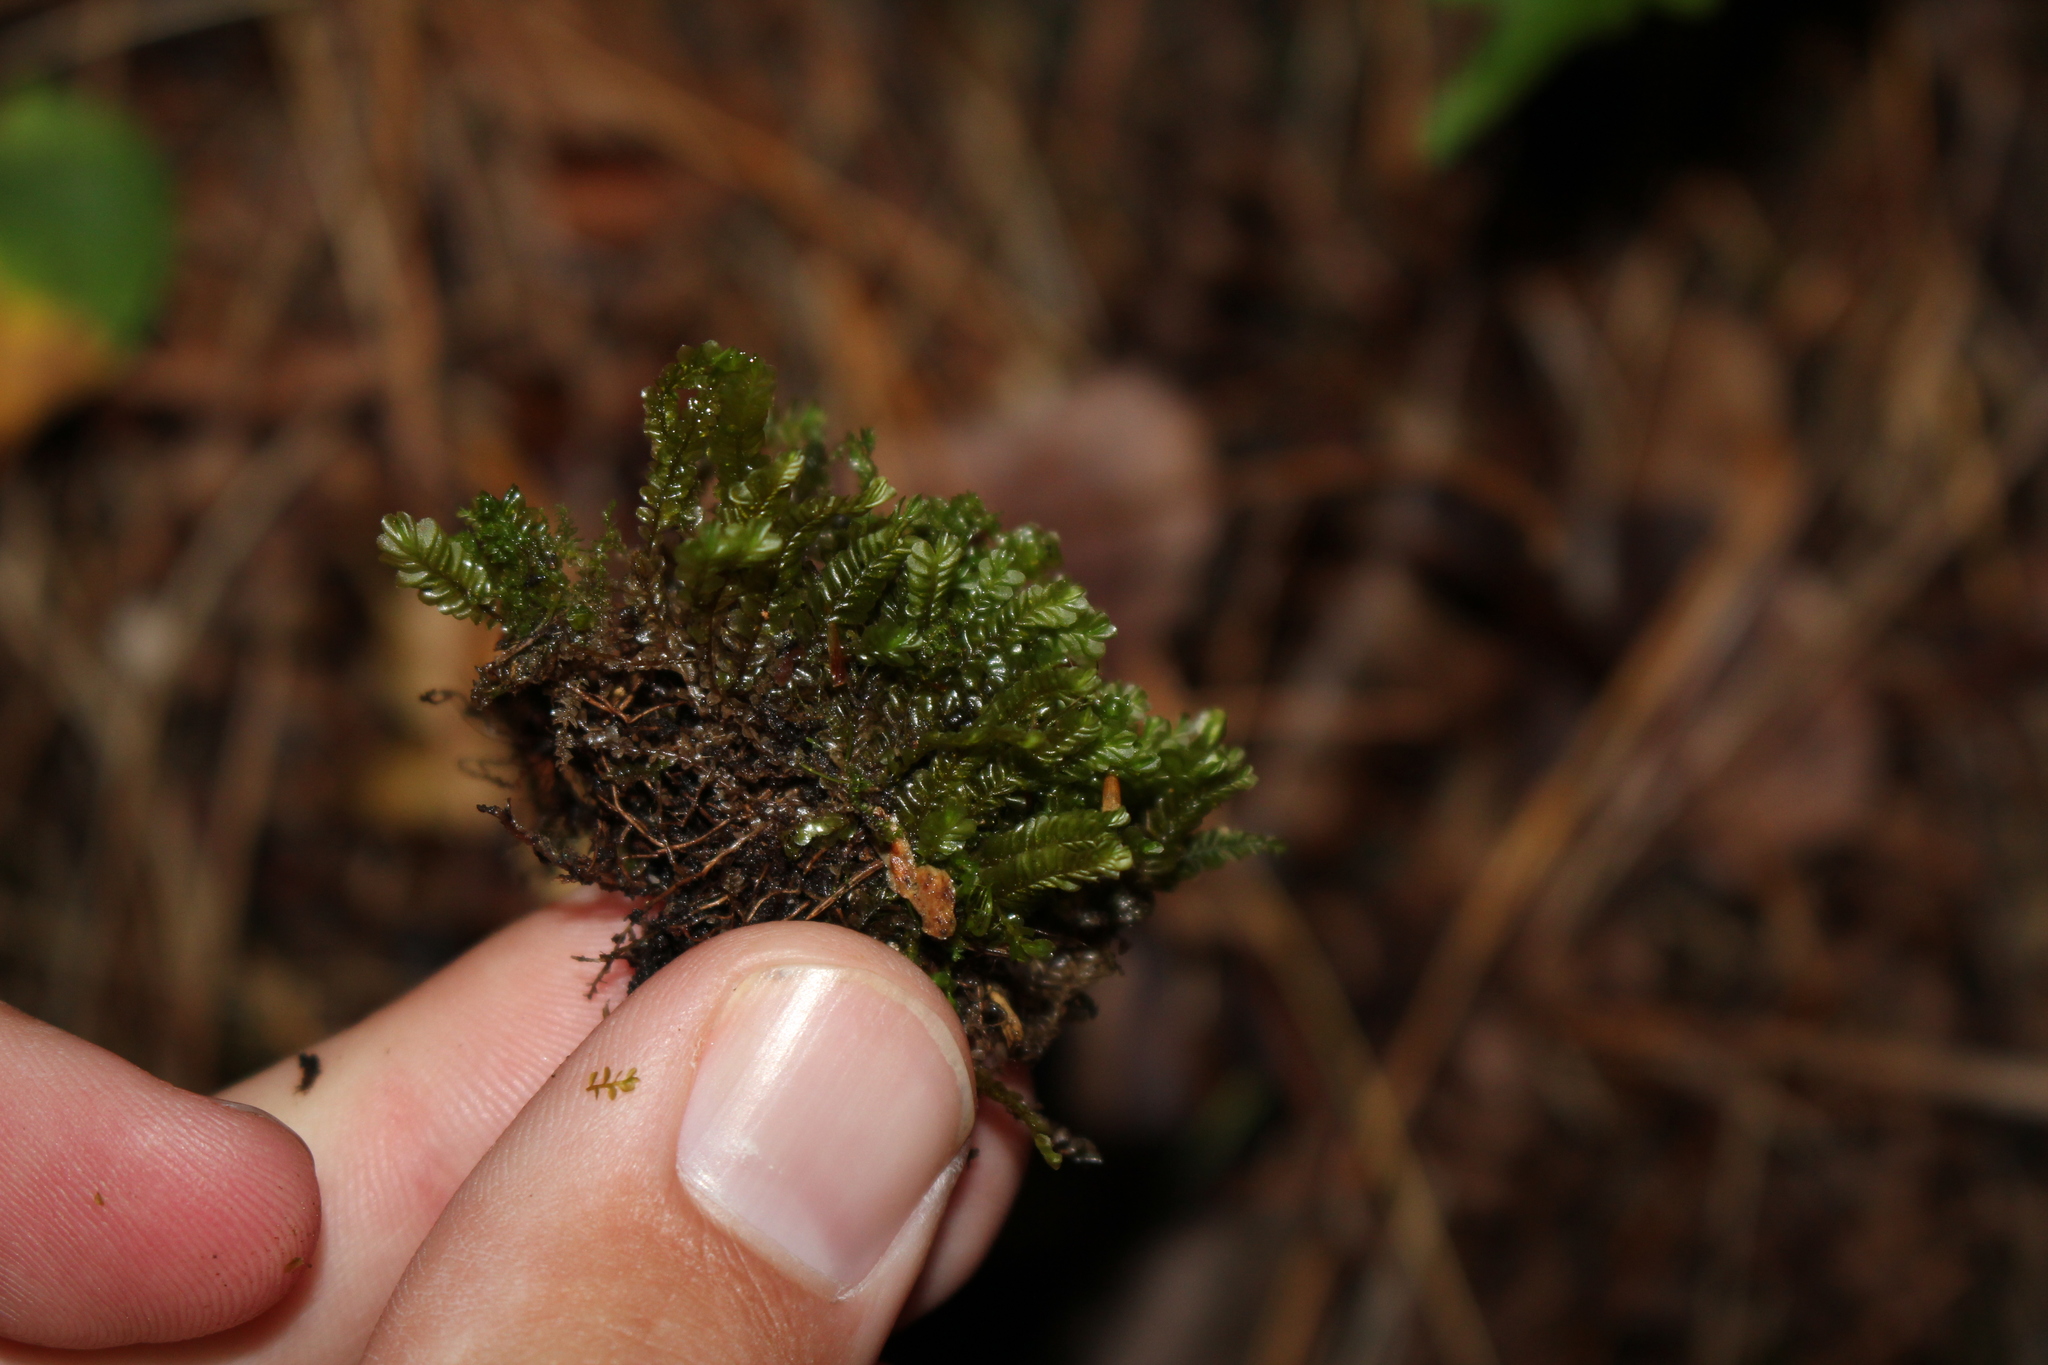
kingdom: Plantae
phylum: Marchantiophyta
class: Jungermanniopsida
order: Jungermanniales
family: Plagiochilaceae
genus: Plagiochila
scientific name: Plagiochila porelloides
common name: Lesser featherwort
